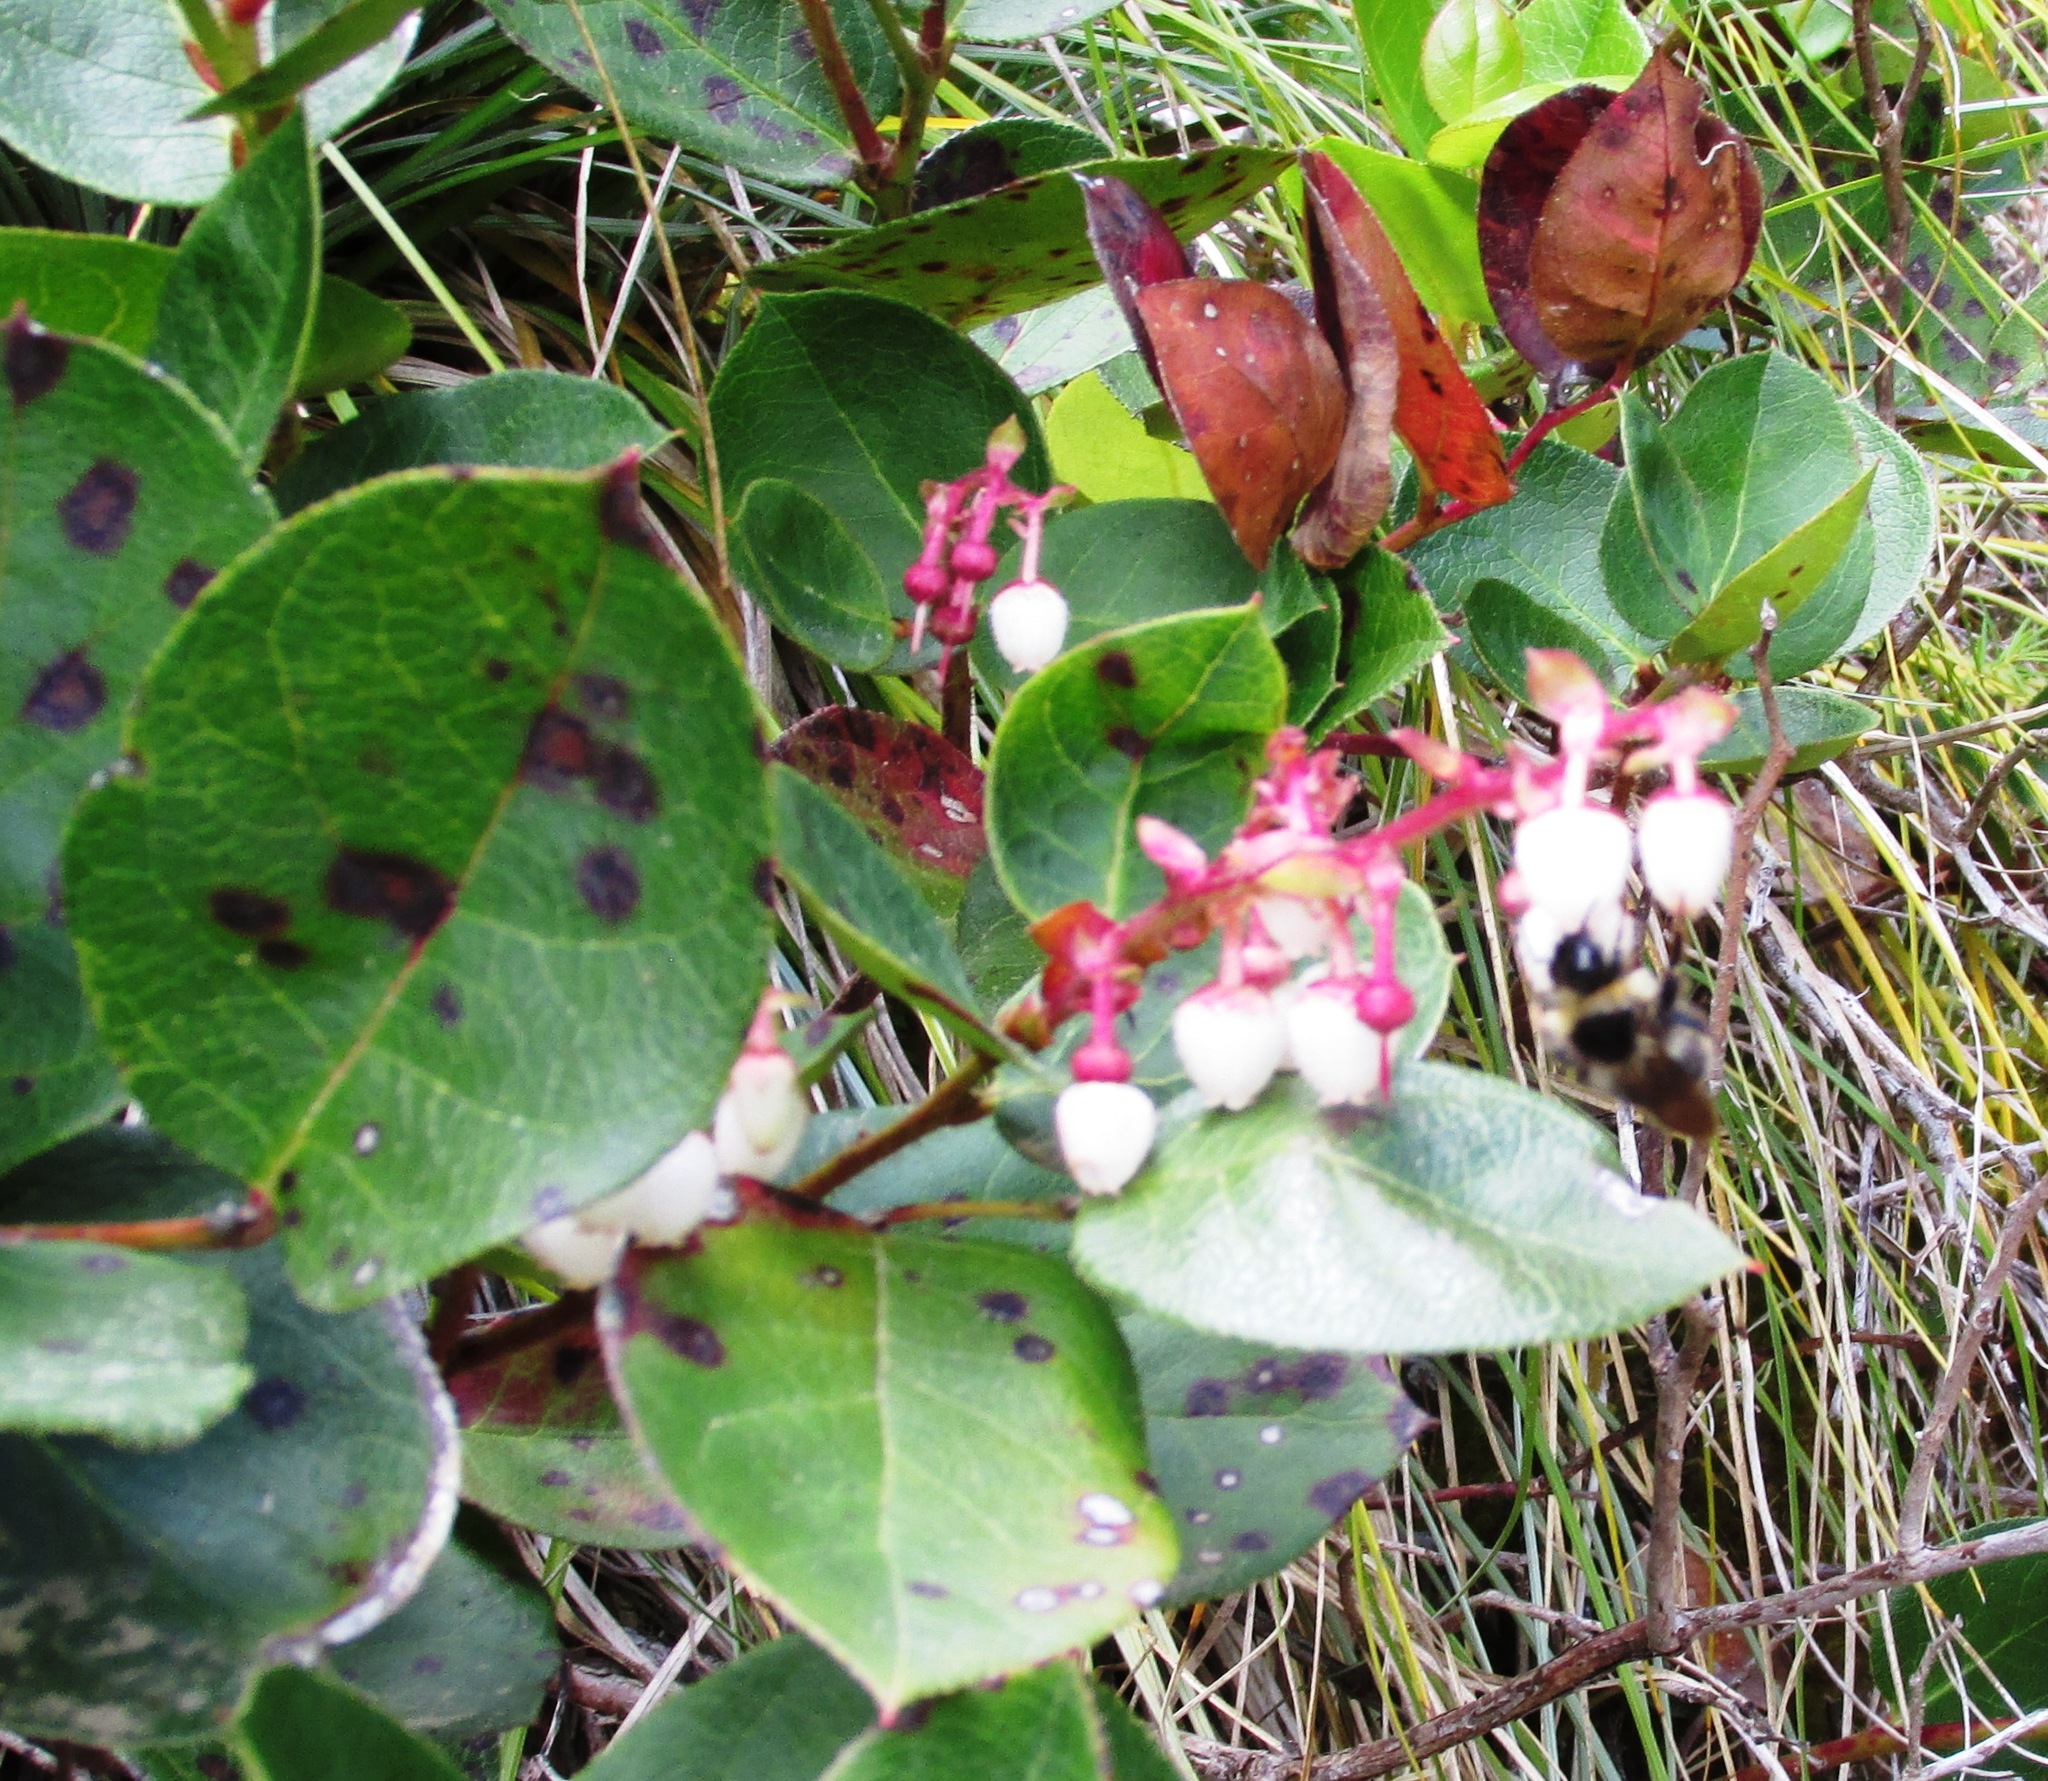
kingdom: Plantae
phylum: Tracheophyta
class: Magnoliopsida
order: Ericales
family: Ericaceae
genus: Gaultheria
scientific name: Gaultheria shallon
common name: Shallon
